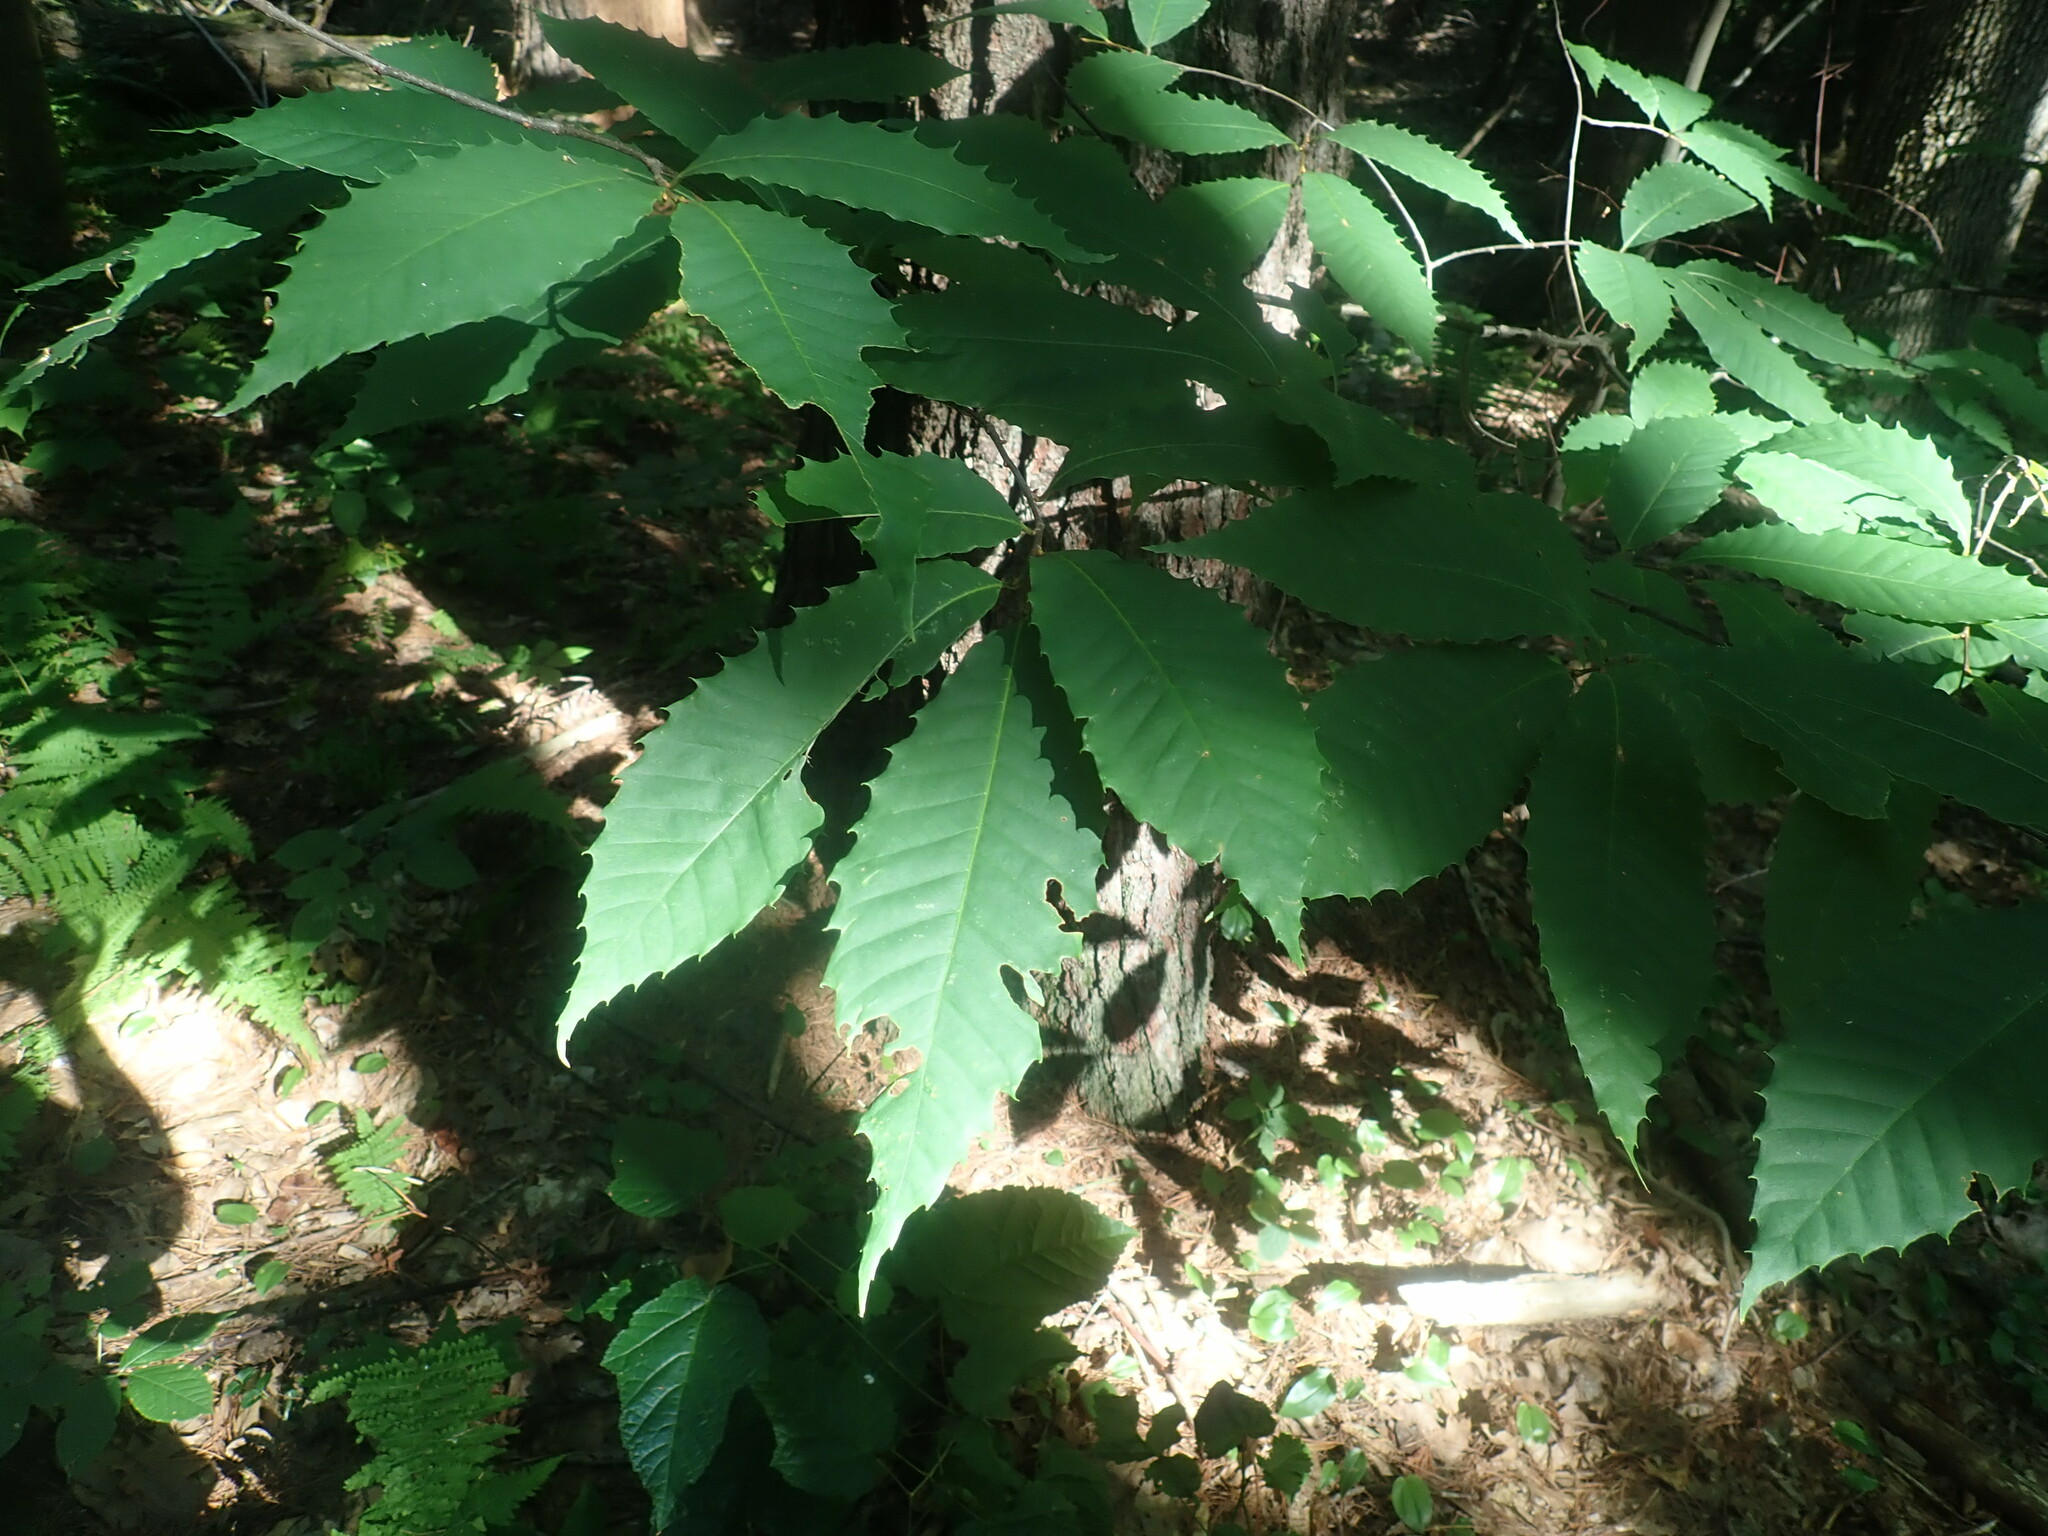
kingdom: Plantae
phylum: Tracheophyta
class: Magnoliopsida
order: Fagales
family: Fagaceae
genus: Castanea
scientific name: Castanea dentata
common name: American chestnut
